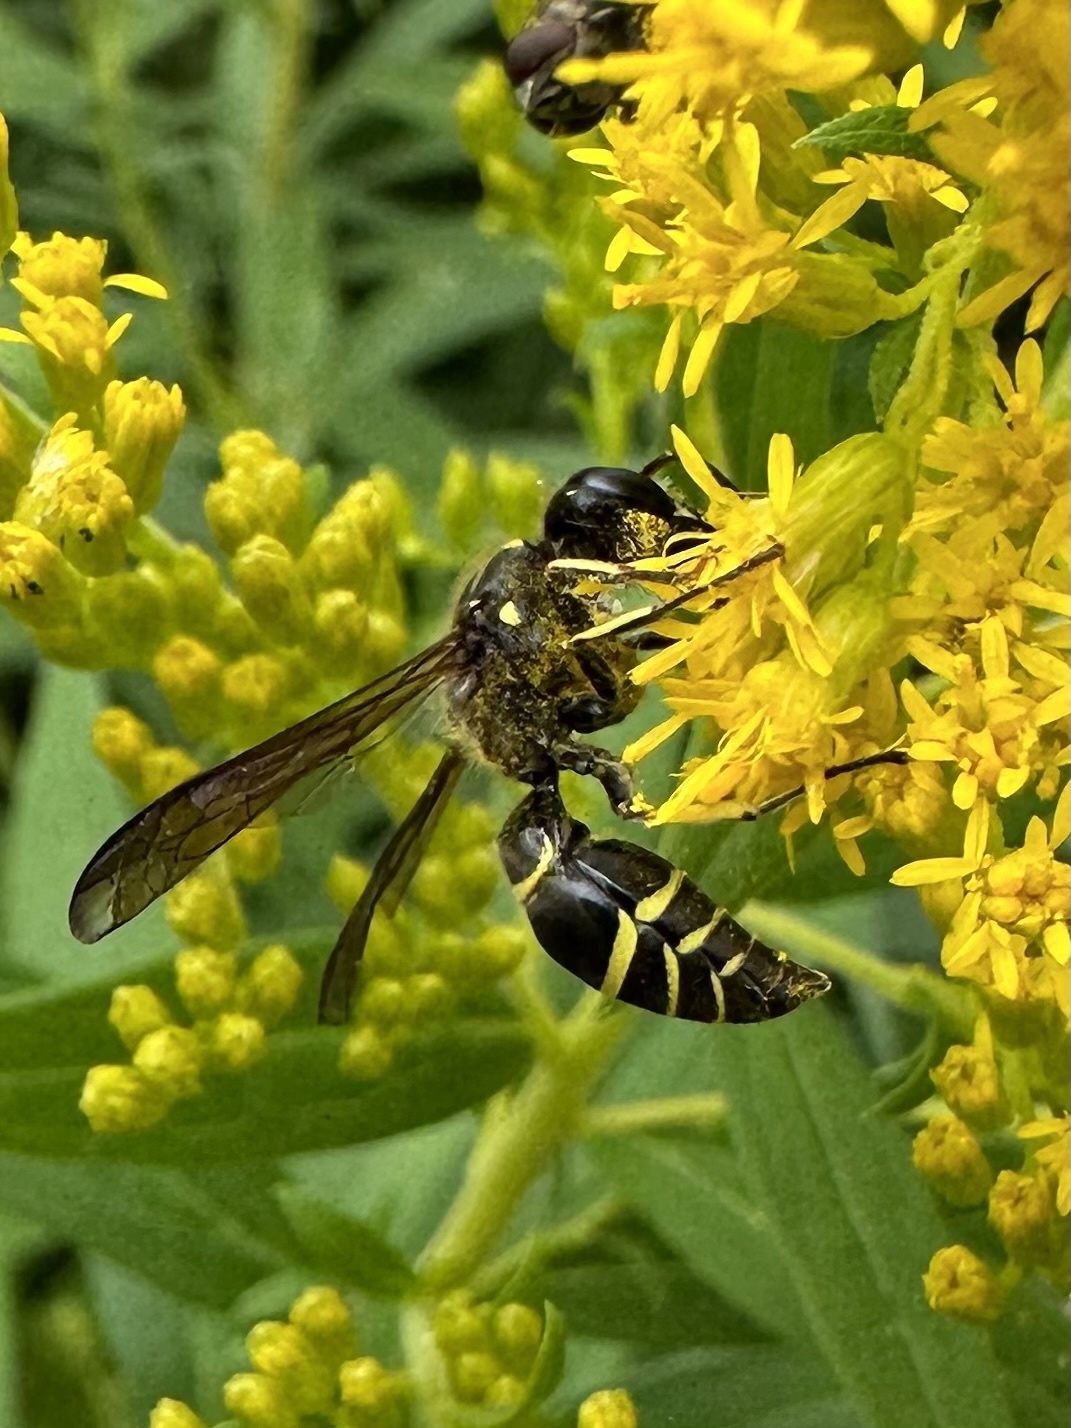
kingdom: Animalia
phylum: Arthropoda
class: Insecta
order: Hymenoptera
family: Vespidae
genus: Ancistrocerus
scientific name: Ancistrocerus
